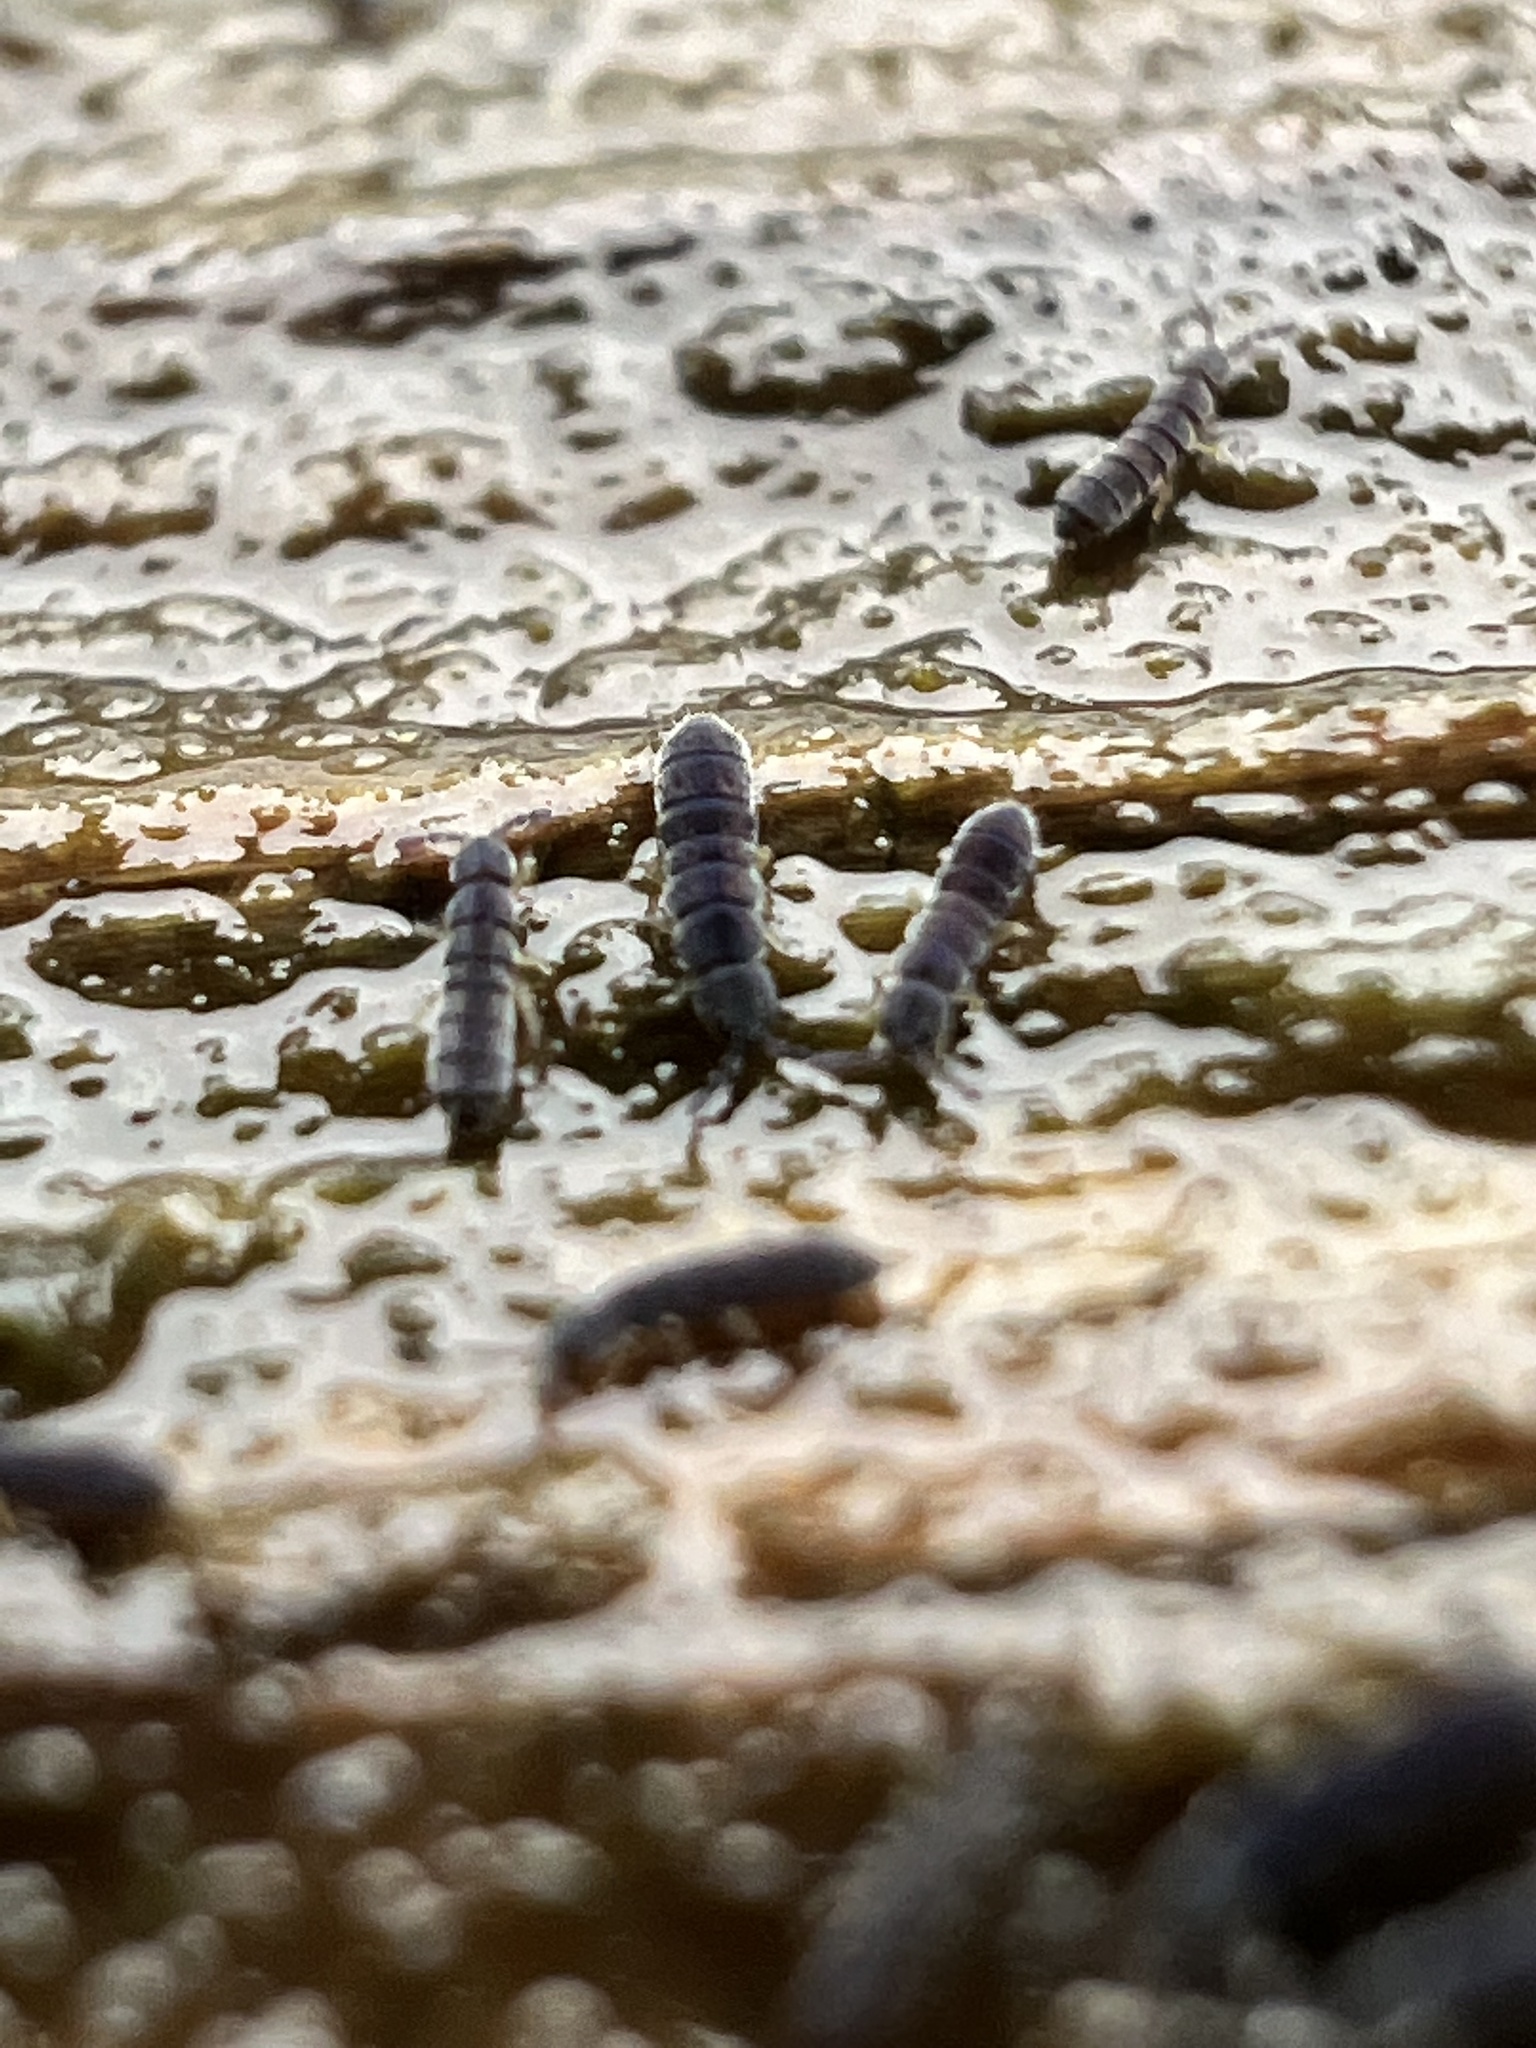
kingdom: Animalia
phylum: Arthropoda
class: Collembola
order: Entomobryomorpha
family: Isotomidae
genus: Vertagopus
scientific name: Vertagopus asiaticus
